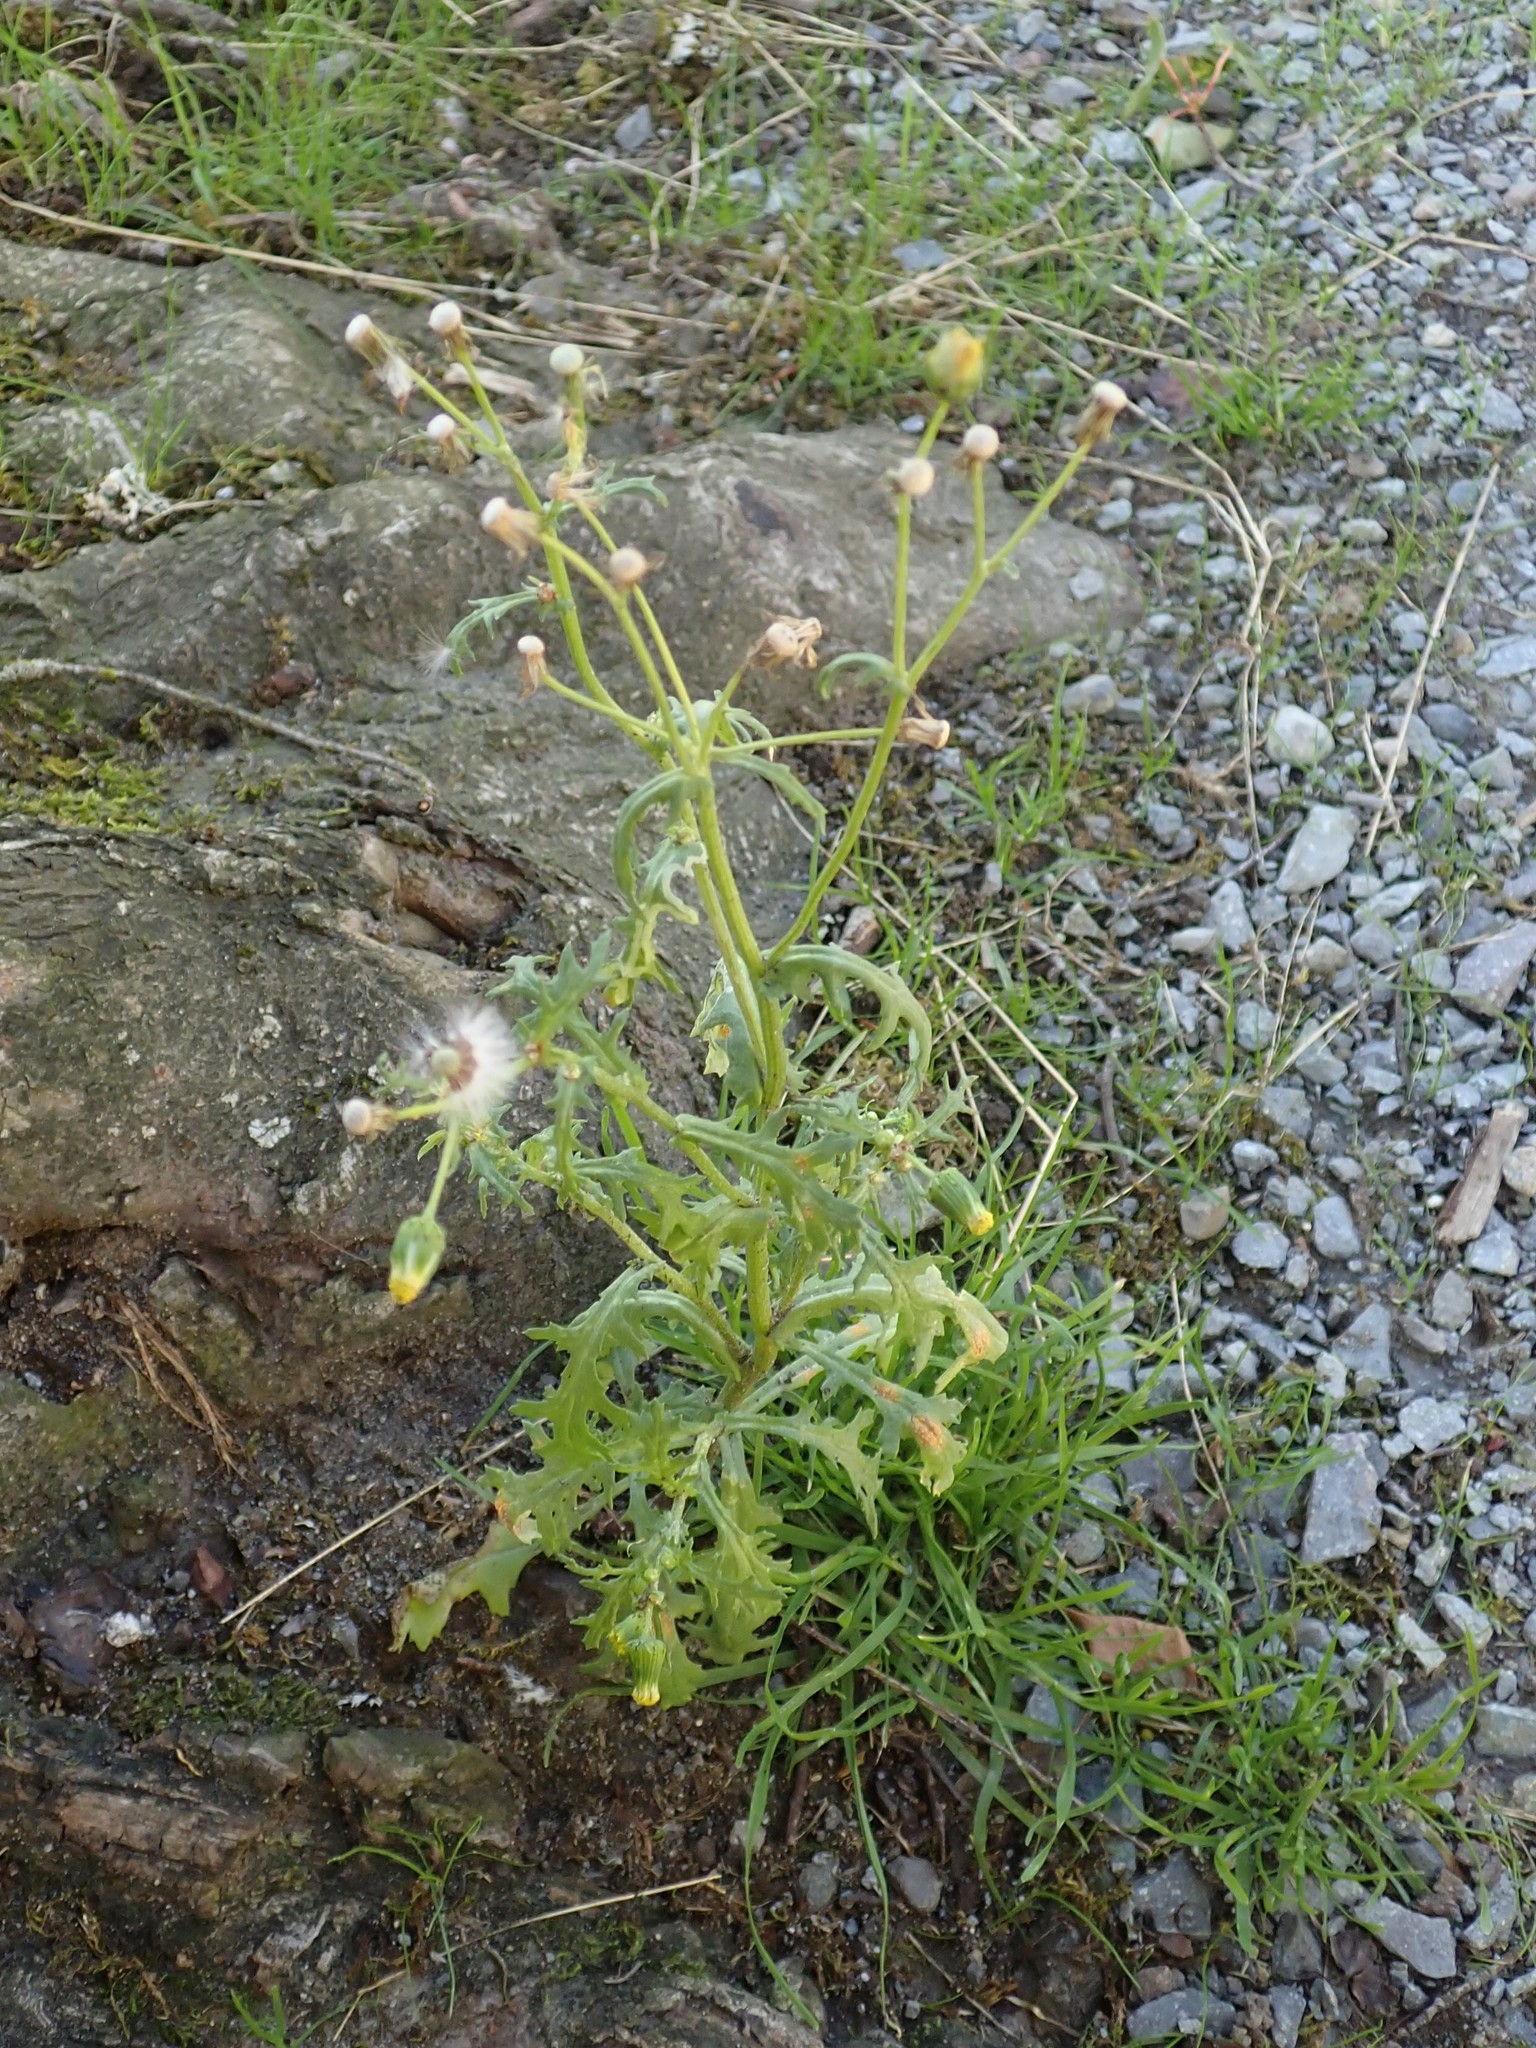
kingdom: Plantae
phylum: Tracheophyta
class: Magnoliopsida
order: Asterales
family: Asteraceae
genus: Senecio
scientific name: Senecio vulgaris
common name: Old-man-in-the-spring
